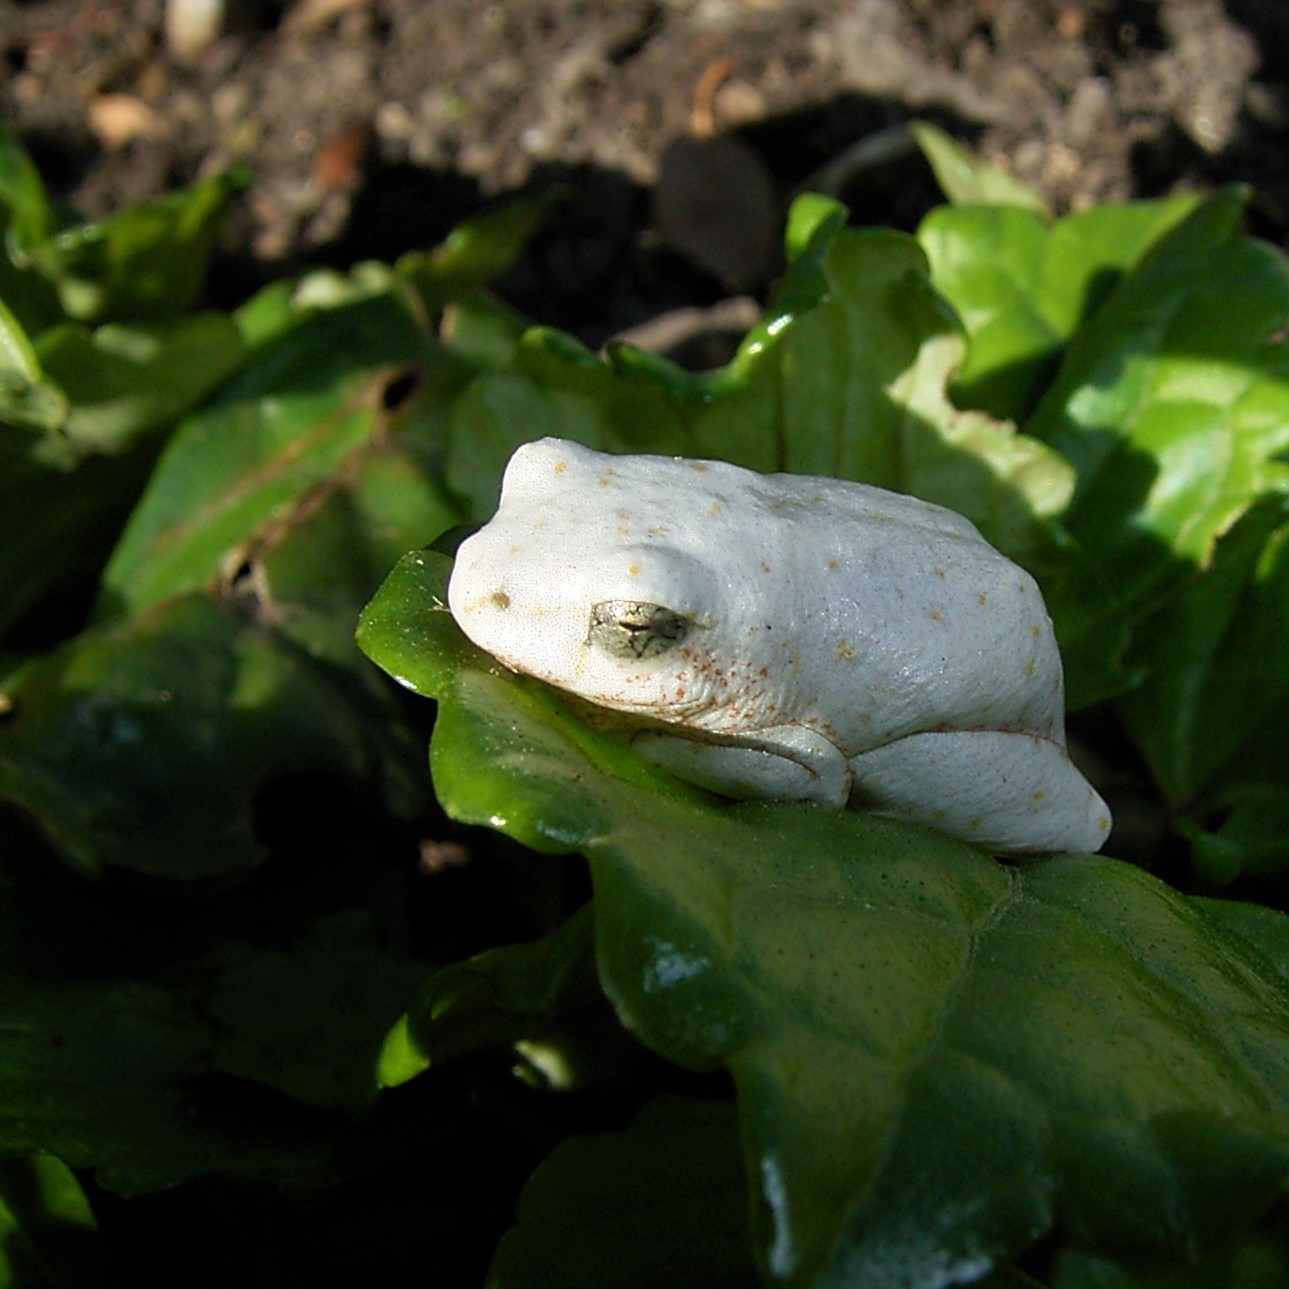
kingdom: Animalia
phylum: Chordata
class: Amphibia
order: Anura
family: Hyperoliidae
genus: Hyperolius
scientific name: Hyperolius marmoratus
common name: Painted reed frog
